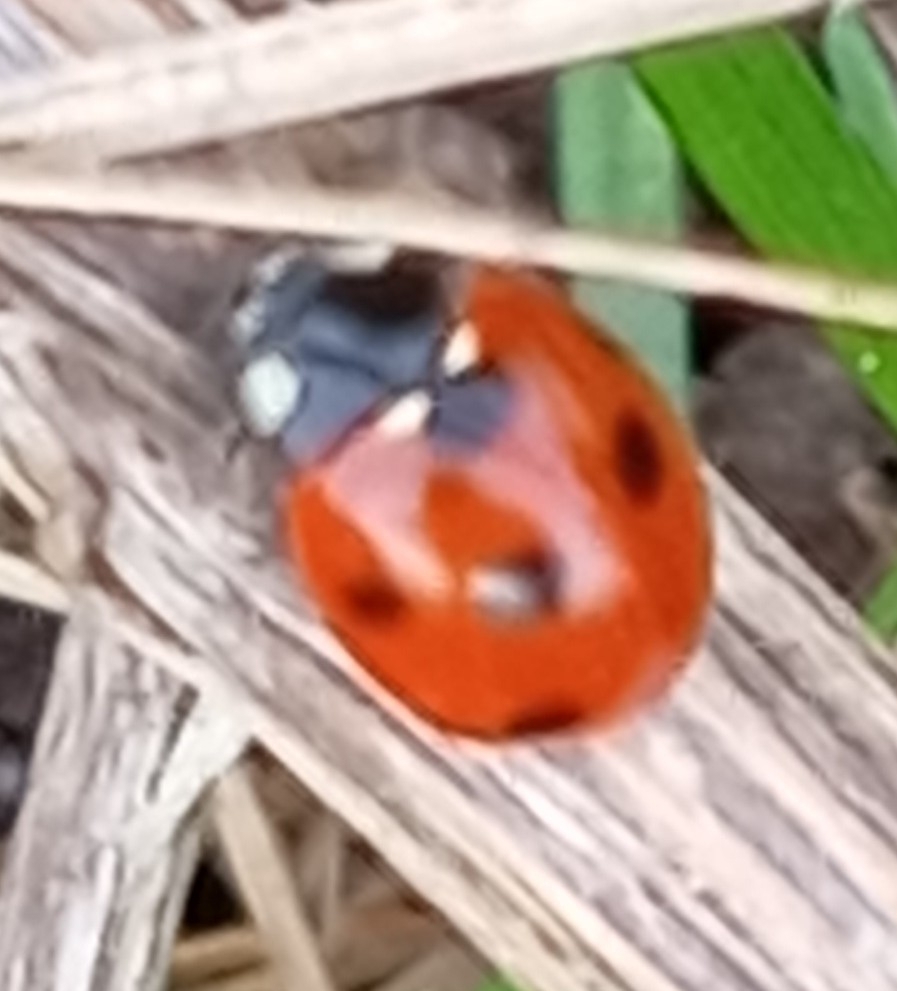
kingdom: Animalia
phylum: Arthropoda
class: Insecta
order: Coleoptera
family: Coccinellidae
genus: Coccinella
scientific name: Coccinella septempunctata
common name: Sevenspotted lady beetle
